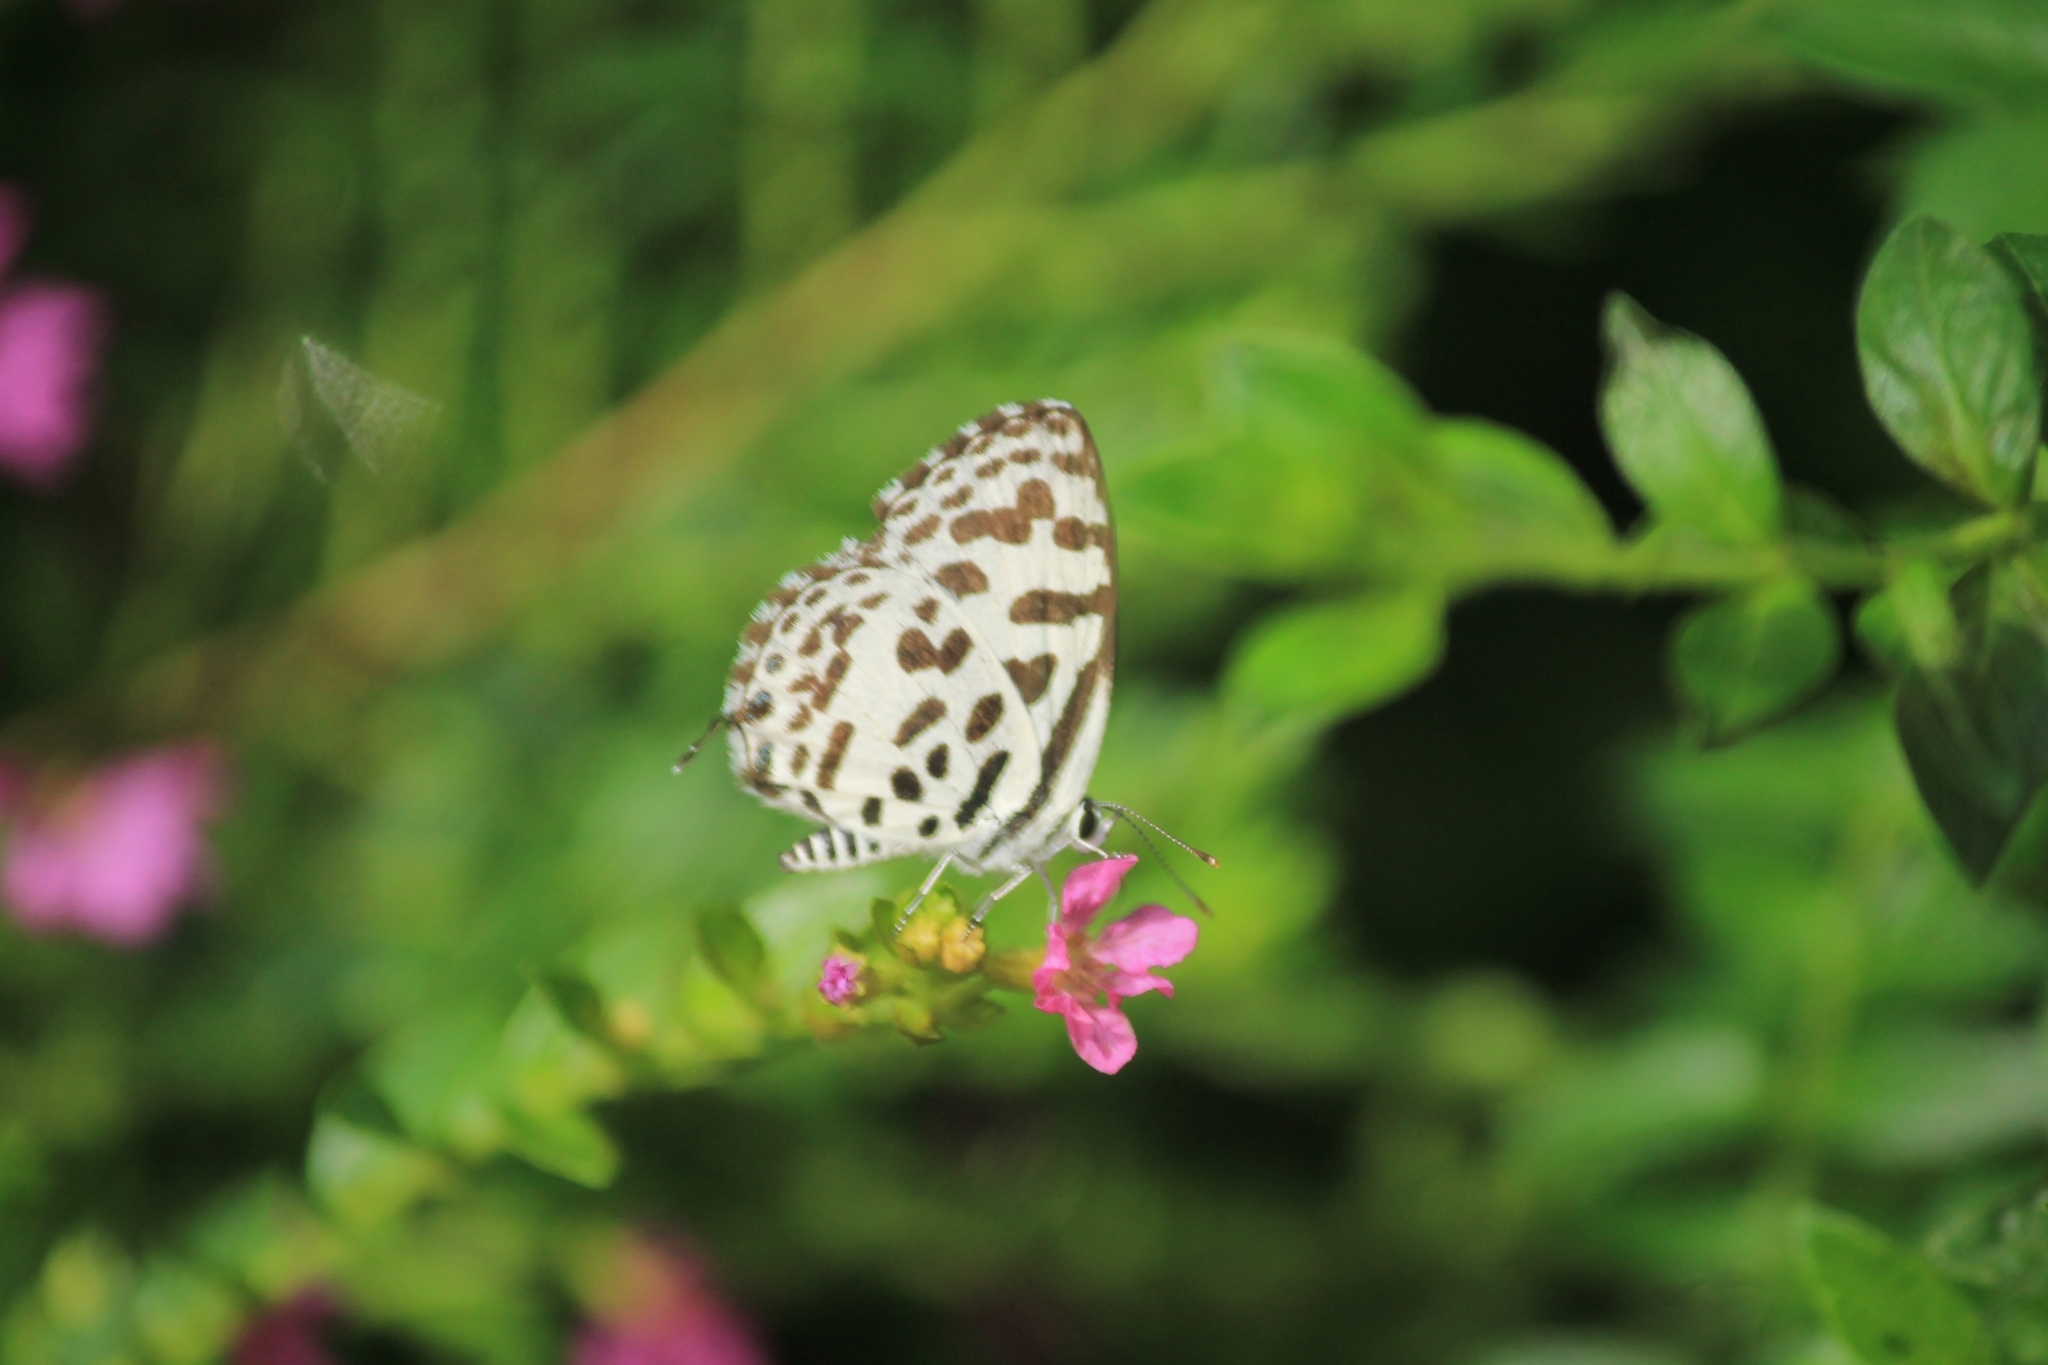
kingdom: Animalia
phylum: Arthropoda
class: Insecta
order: Lepidoptera
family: Lycaenidae
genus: Castalius
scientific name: Castalius rosimon
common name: Common pierrot
